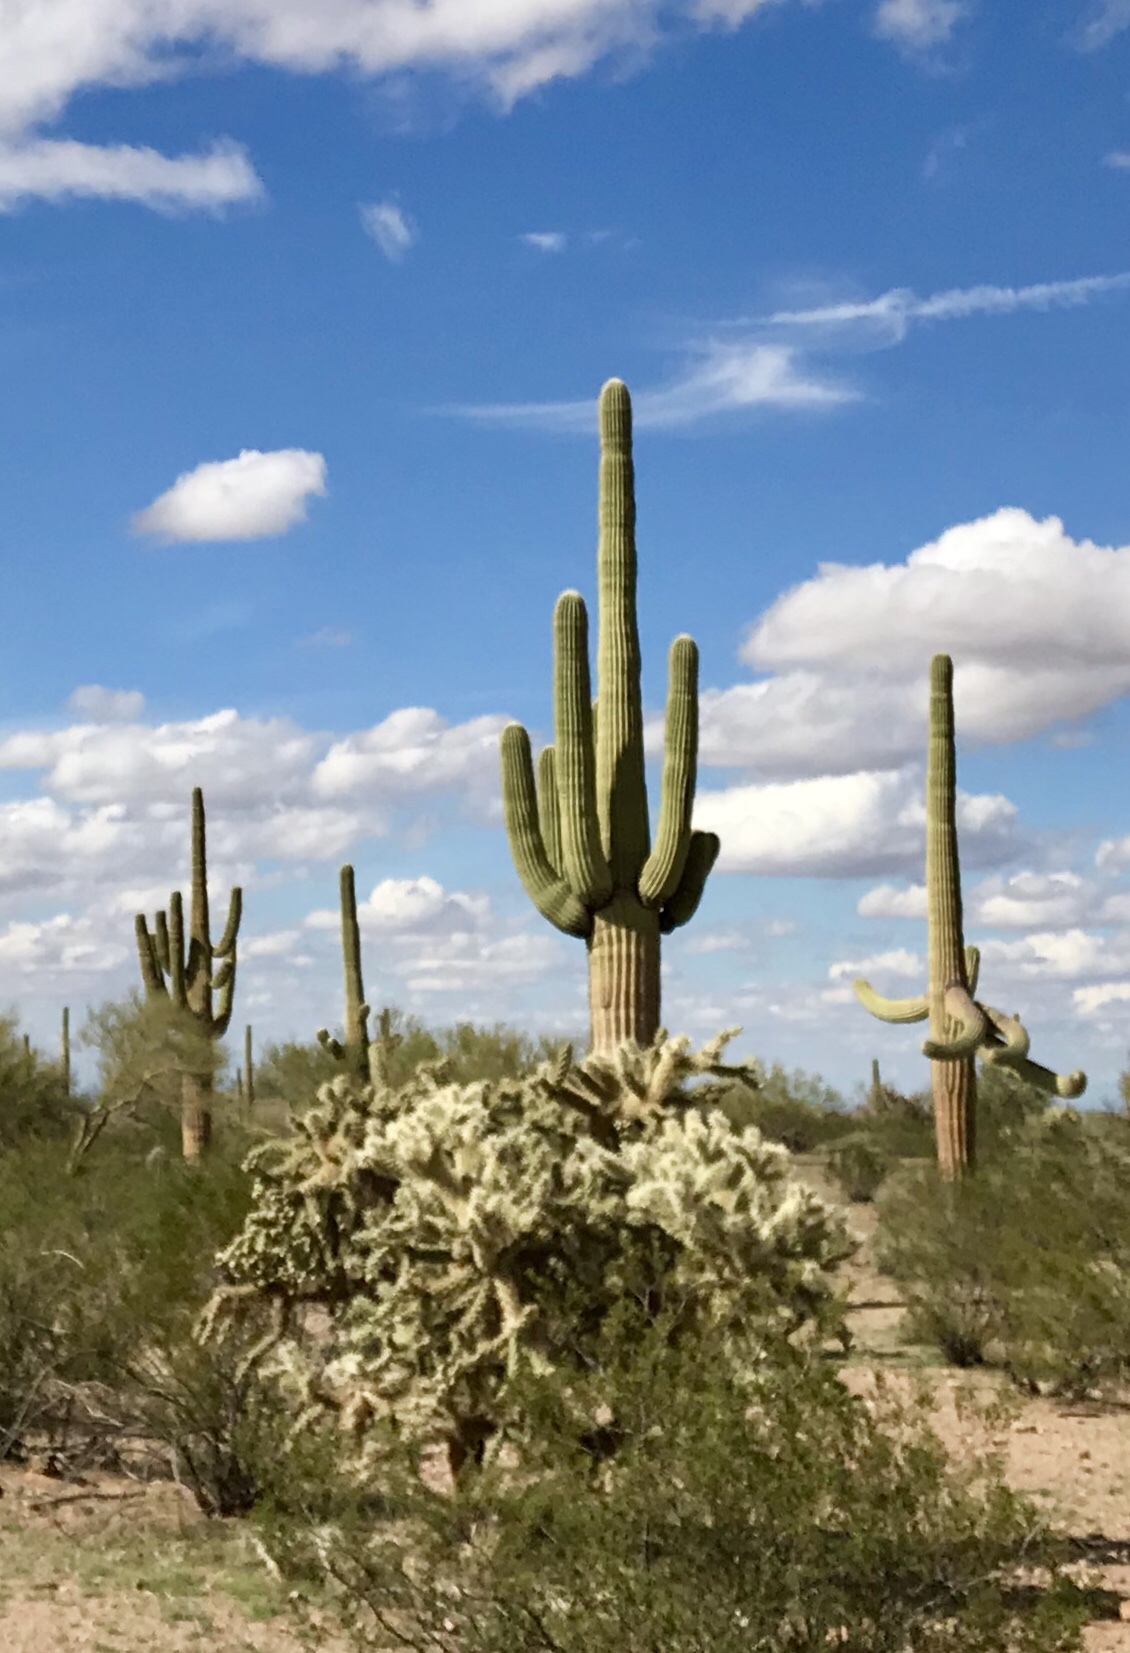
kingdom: Plantae
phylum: Tracheophyta
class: Magnoliopsida
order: Caryophyllales
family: Cactaceae
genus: Carnegiea
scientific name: Carnegiea gigantea
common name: Saguaro
